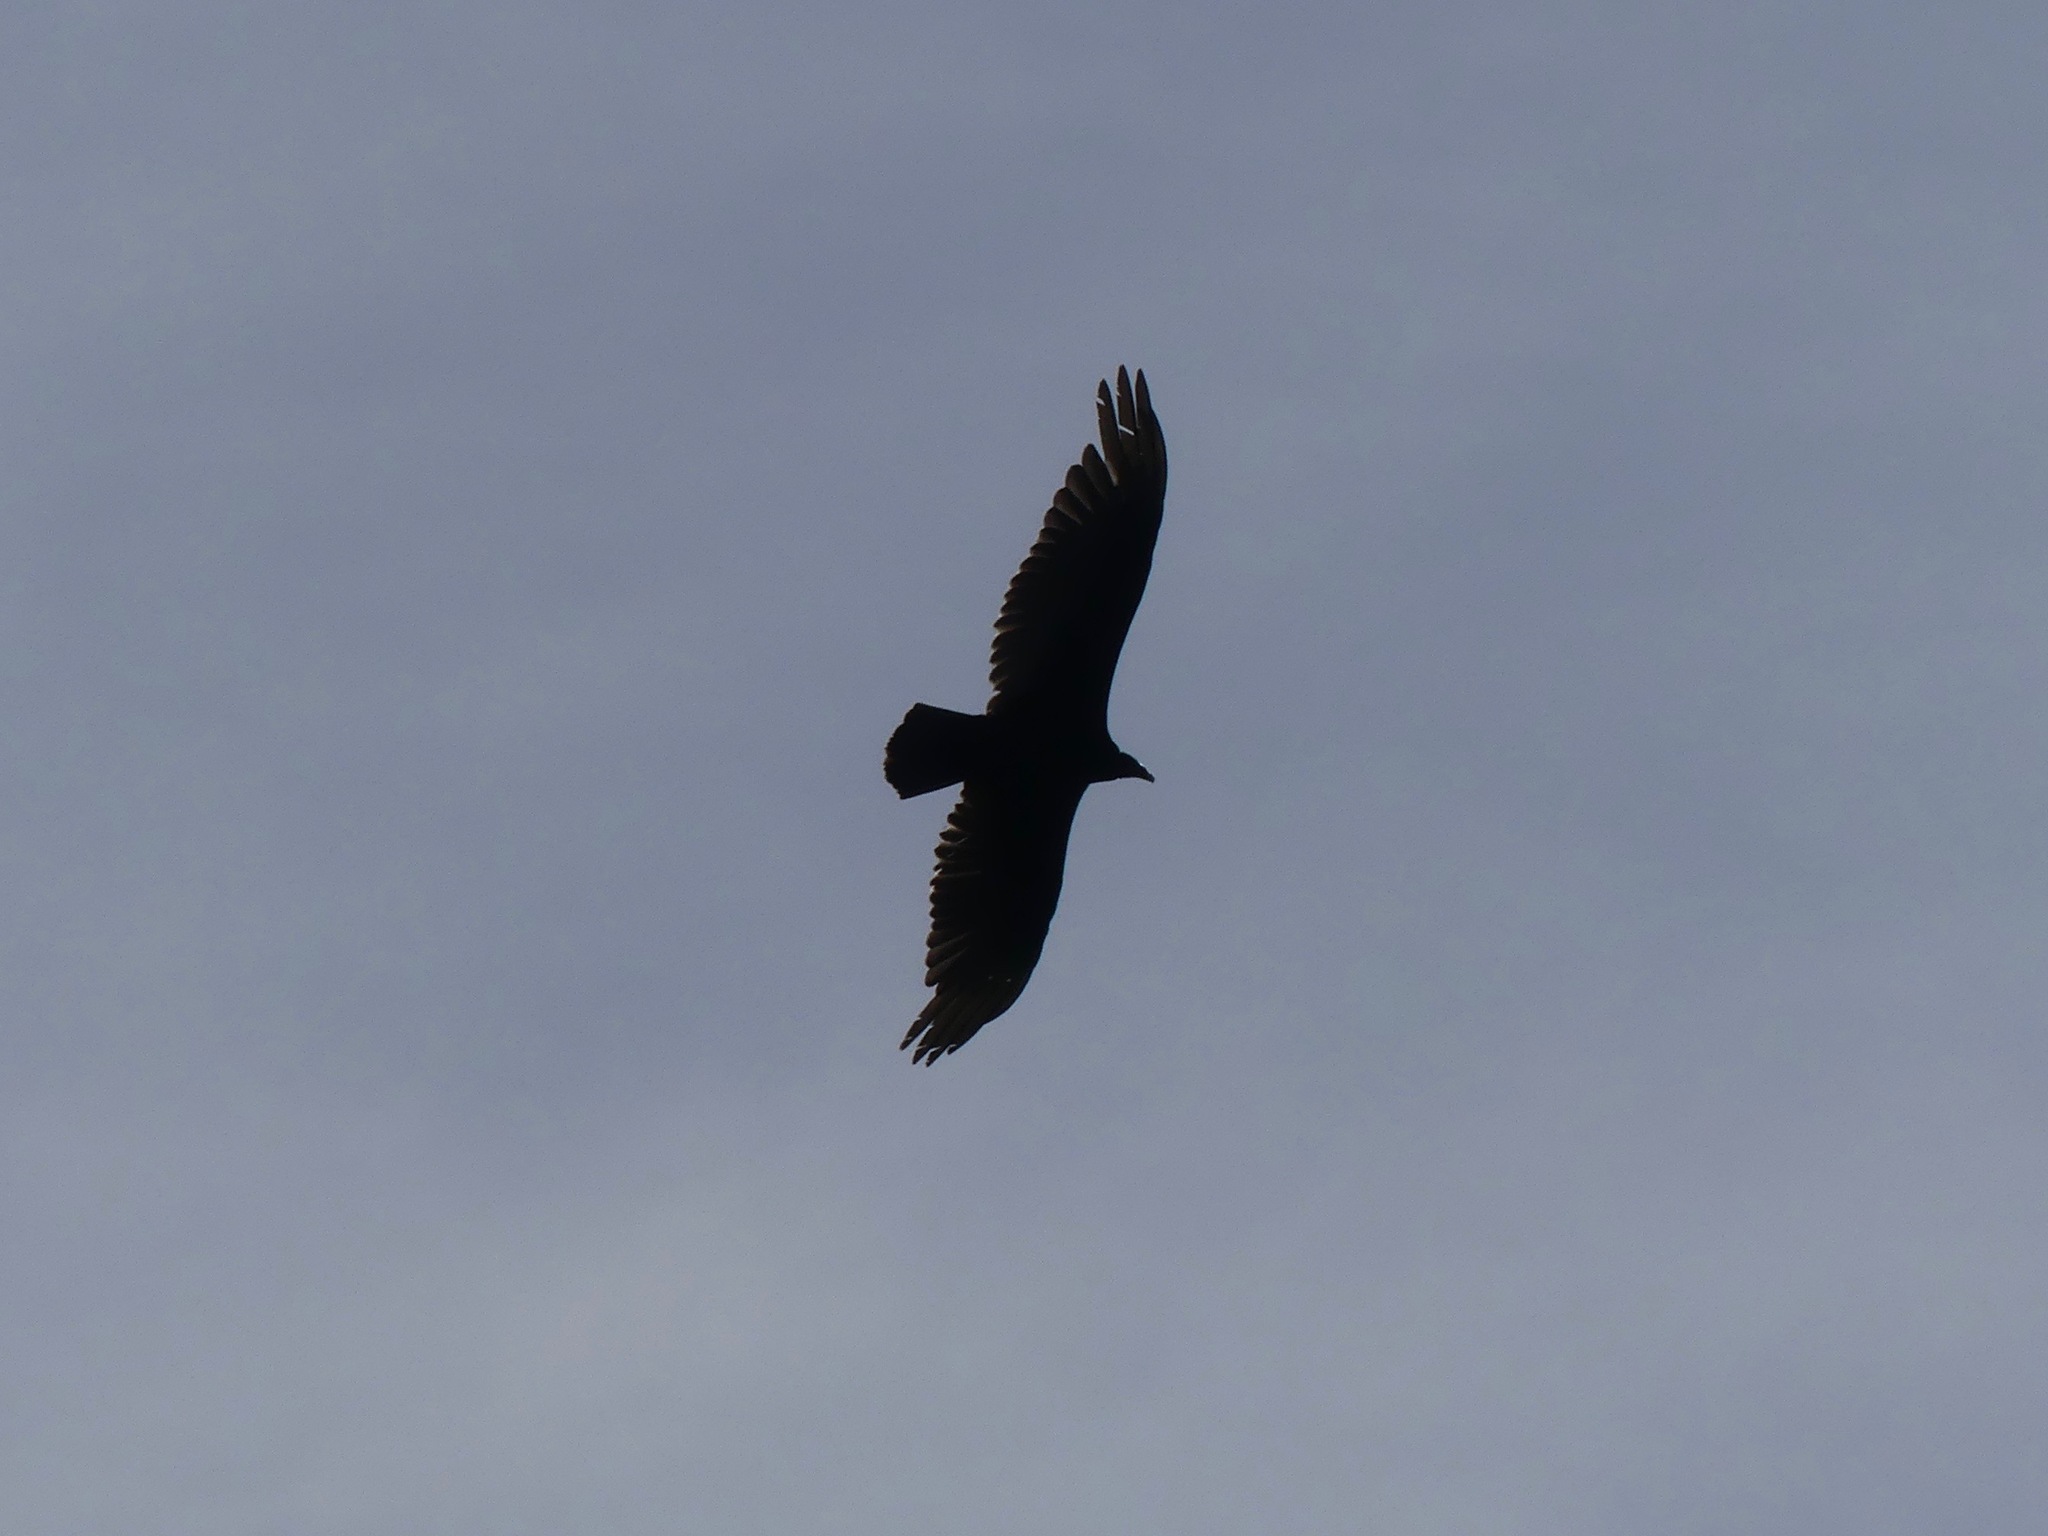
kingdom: Animalia
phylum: Chordata
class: Aves
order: Accipitriformes
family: Cathartidae
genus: Cathartes
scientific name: Cathartes aura
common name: Turkey vulture
